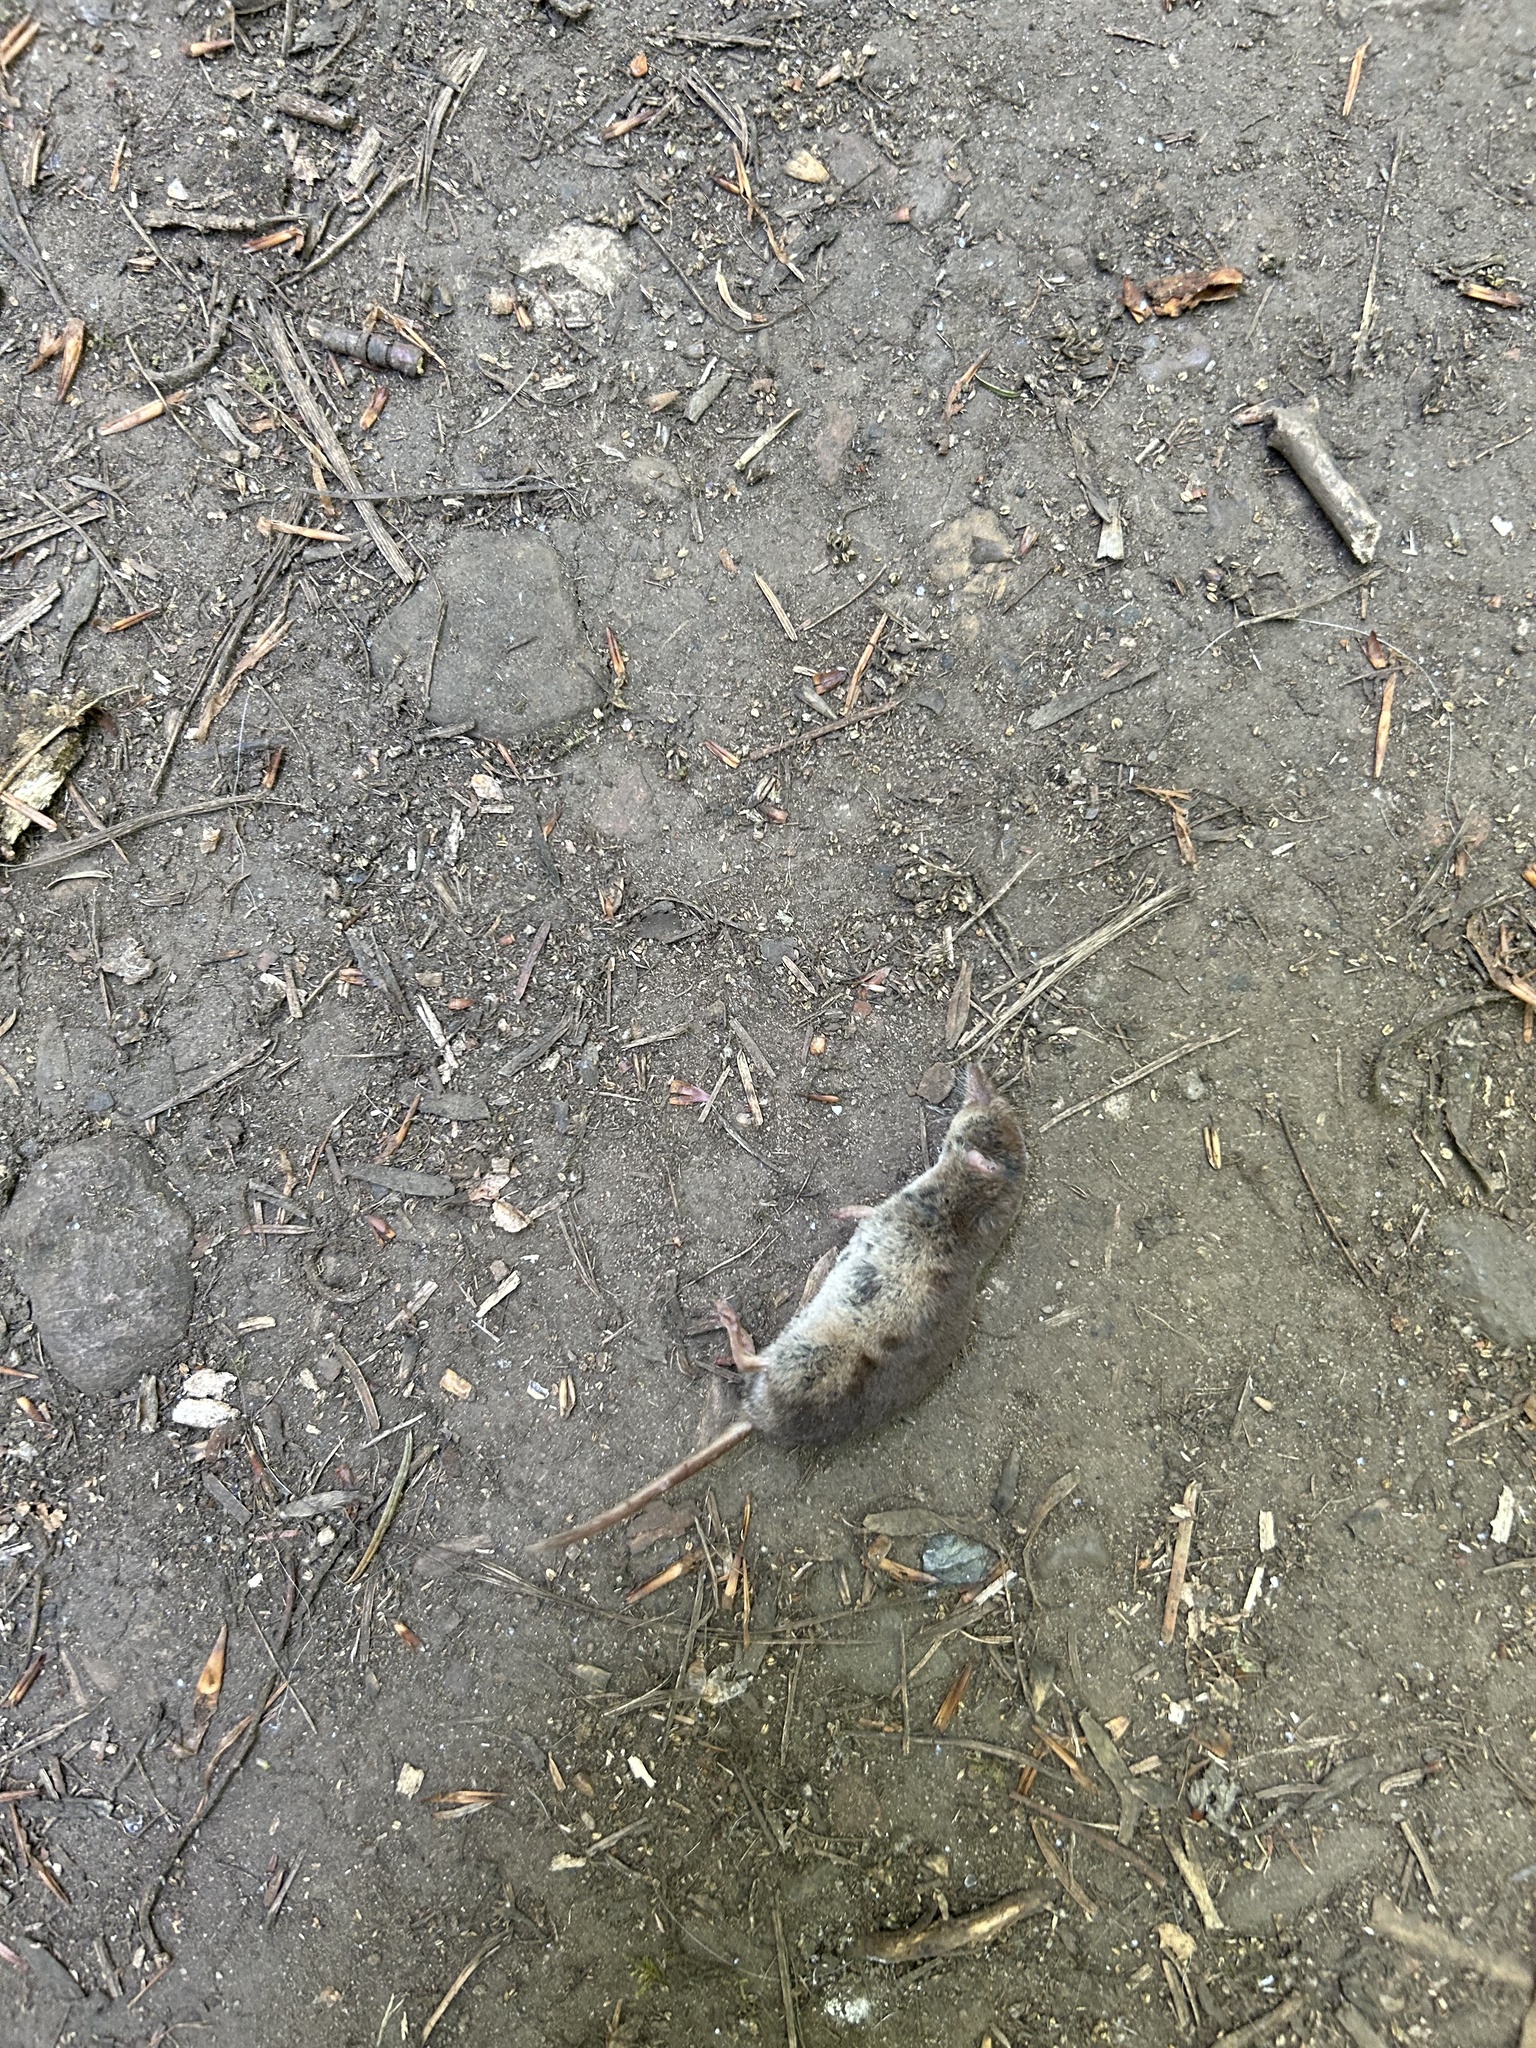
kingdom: Animalia
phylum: Chordata
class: Mammalia
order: Soricomorpha
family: Soricidae
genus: Sorex
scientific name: Sorex araneus
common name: Common shrew
